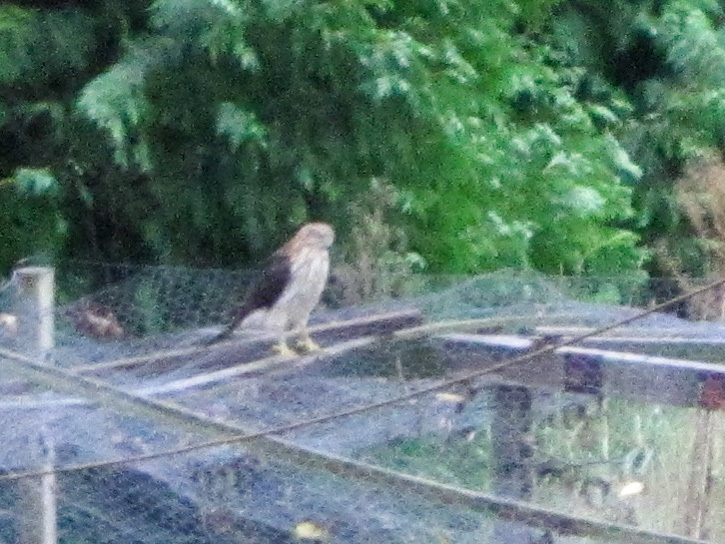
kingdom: Animalia
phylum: Chordata
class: Aves
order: Accipitriformes
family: Accipitridae
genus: Accipiter
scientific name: Accipiter cooperii
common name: Cooper's hawk
